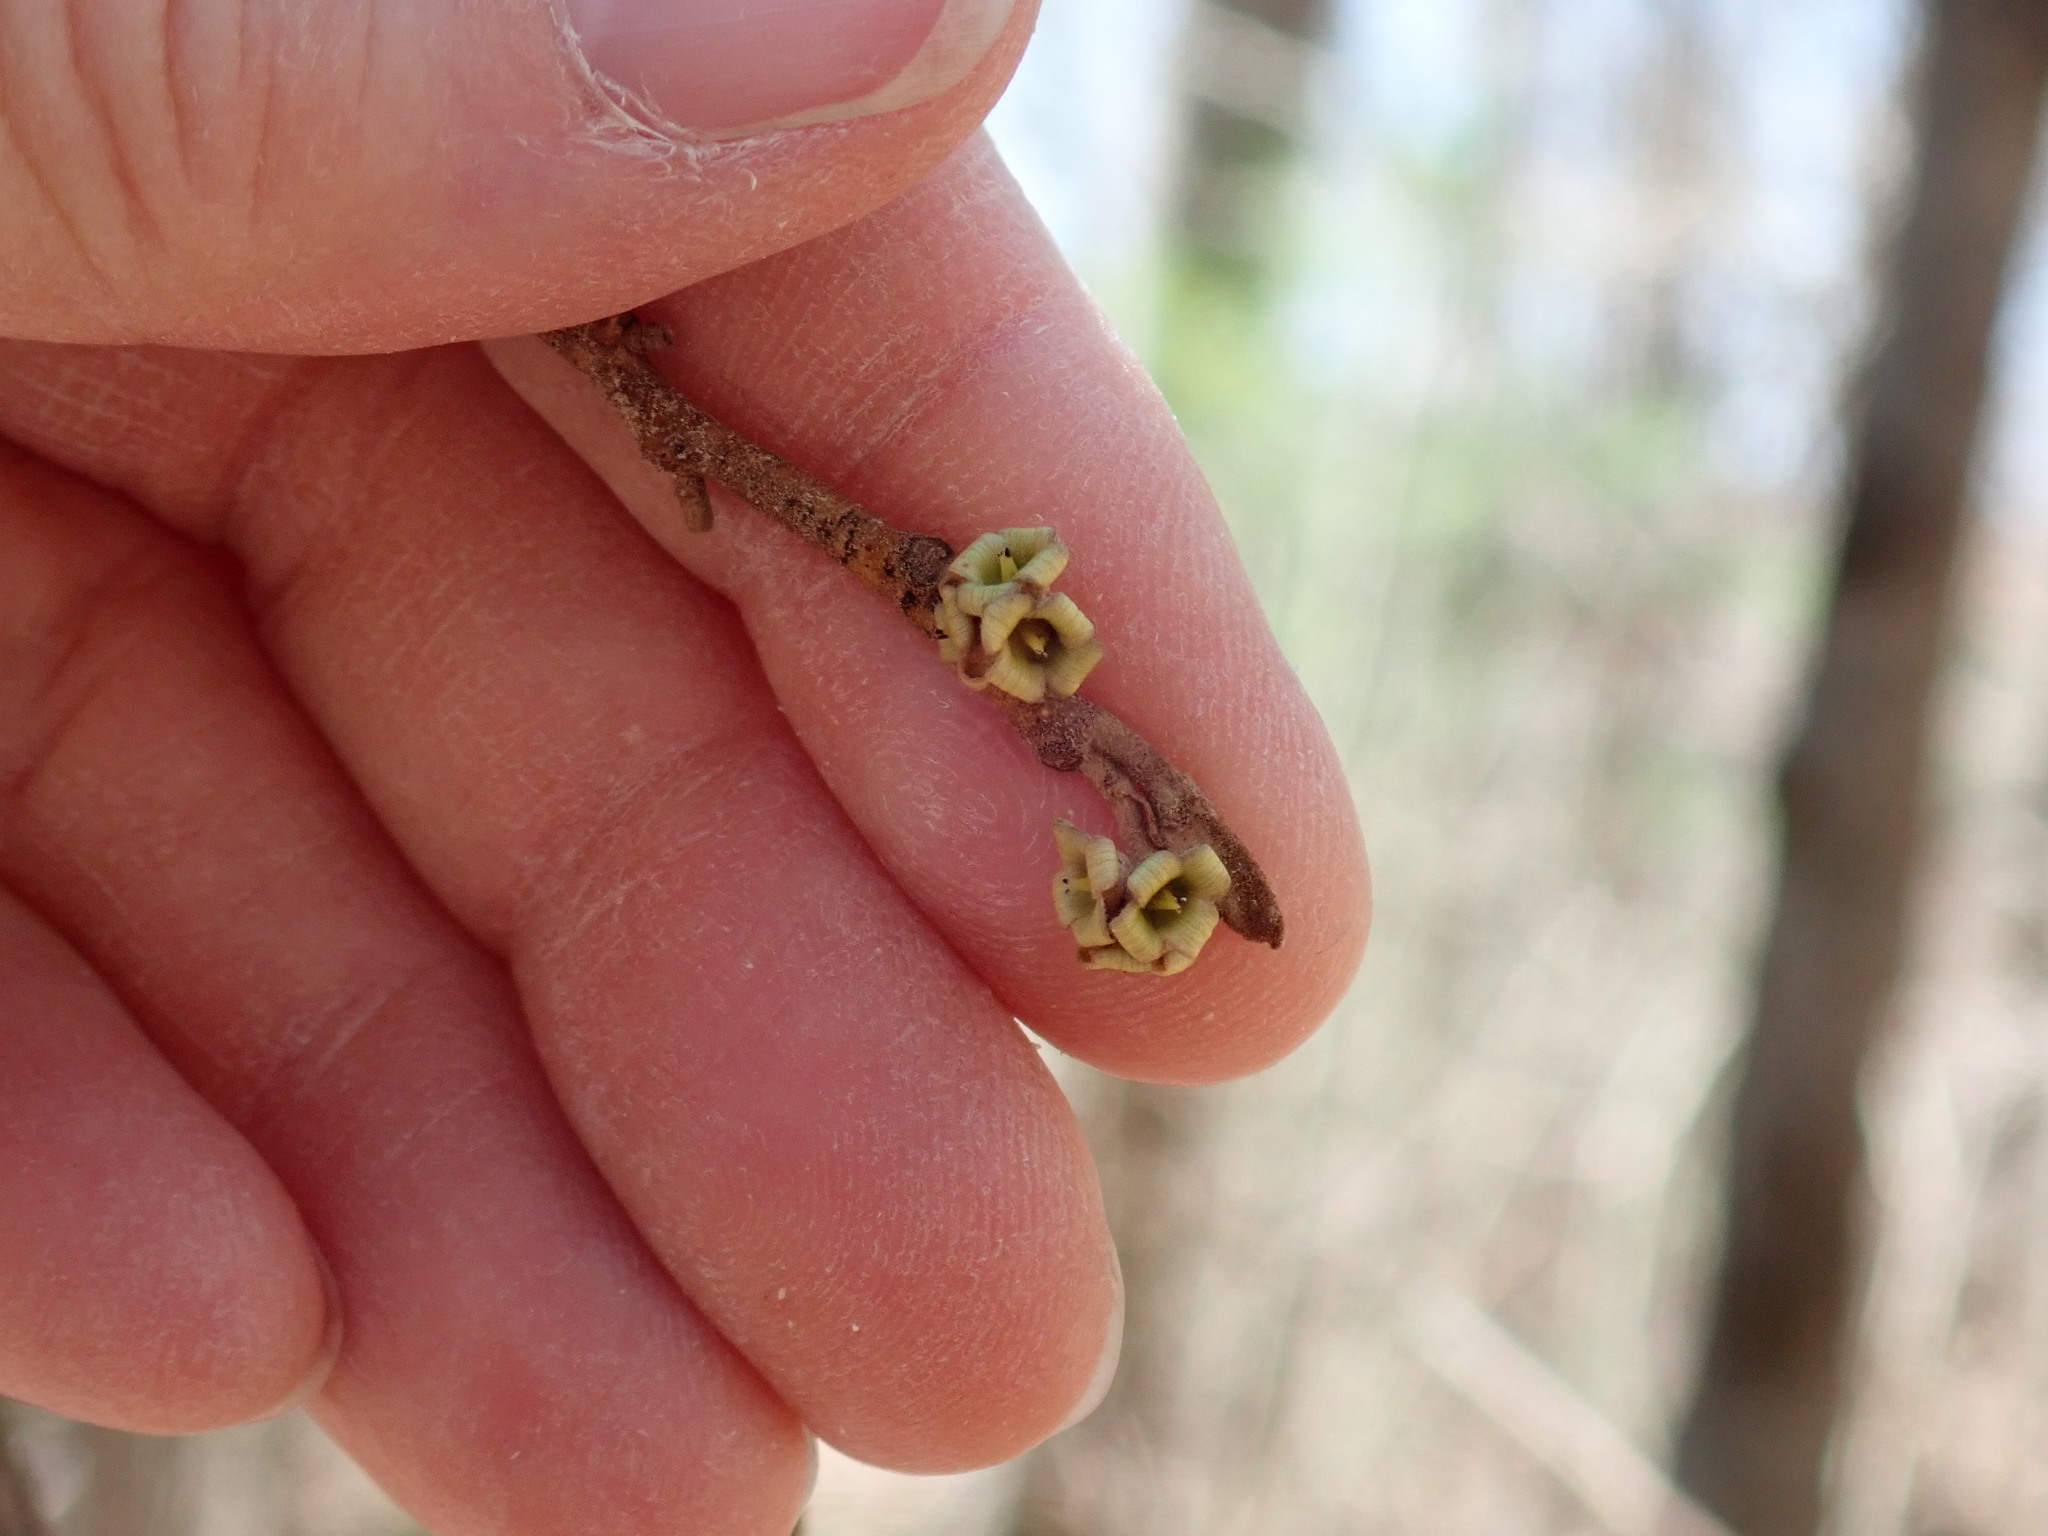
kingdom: Plantae
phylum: Tracheophyta
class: Magnoliopsida
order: Saxifragales
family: Hamamelidaceae
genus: Hamamelis
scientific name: Hamamelis virginiana
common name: Witch-hazel
